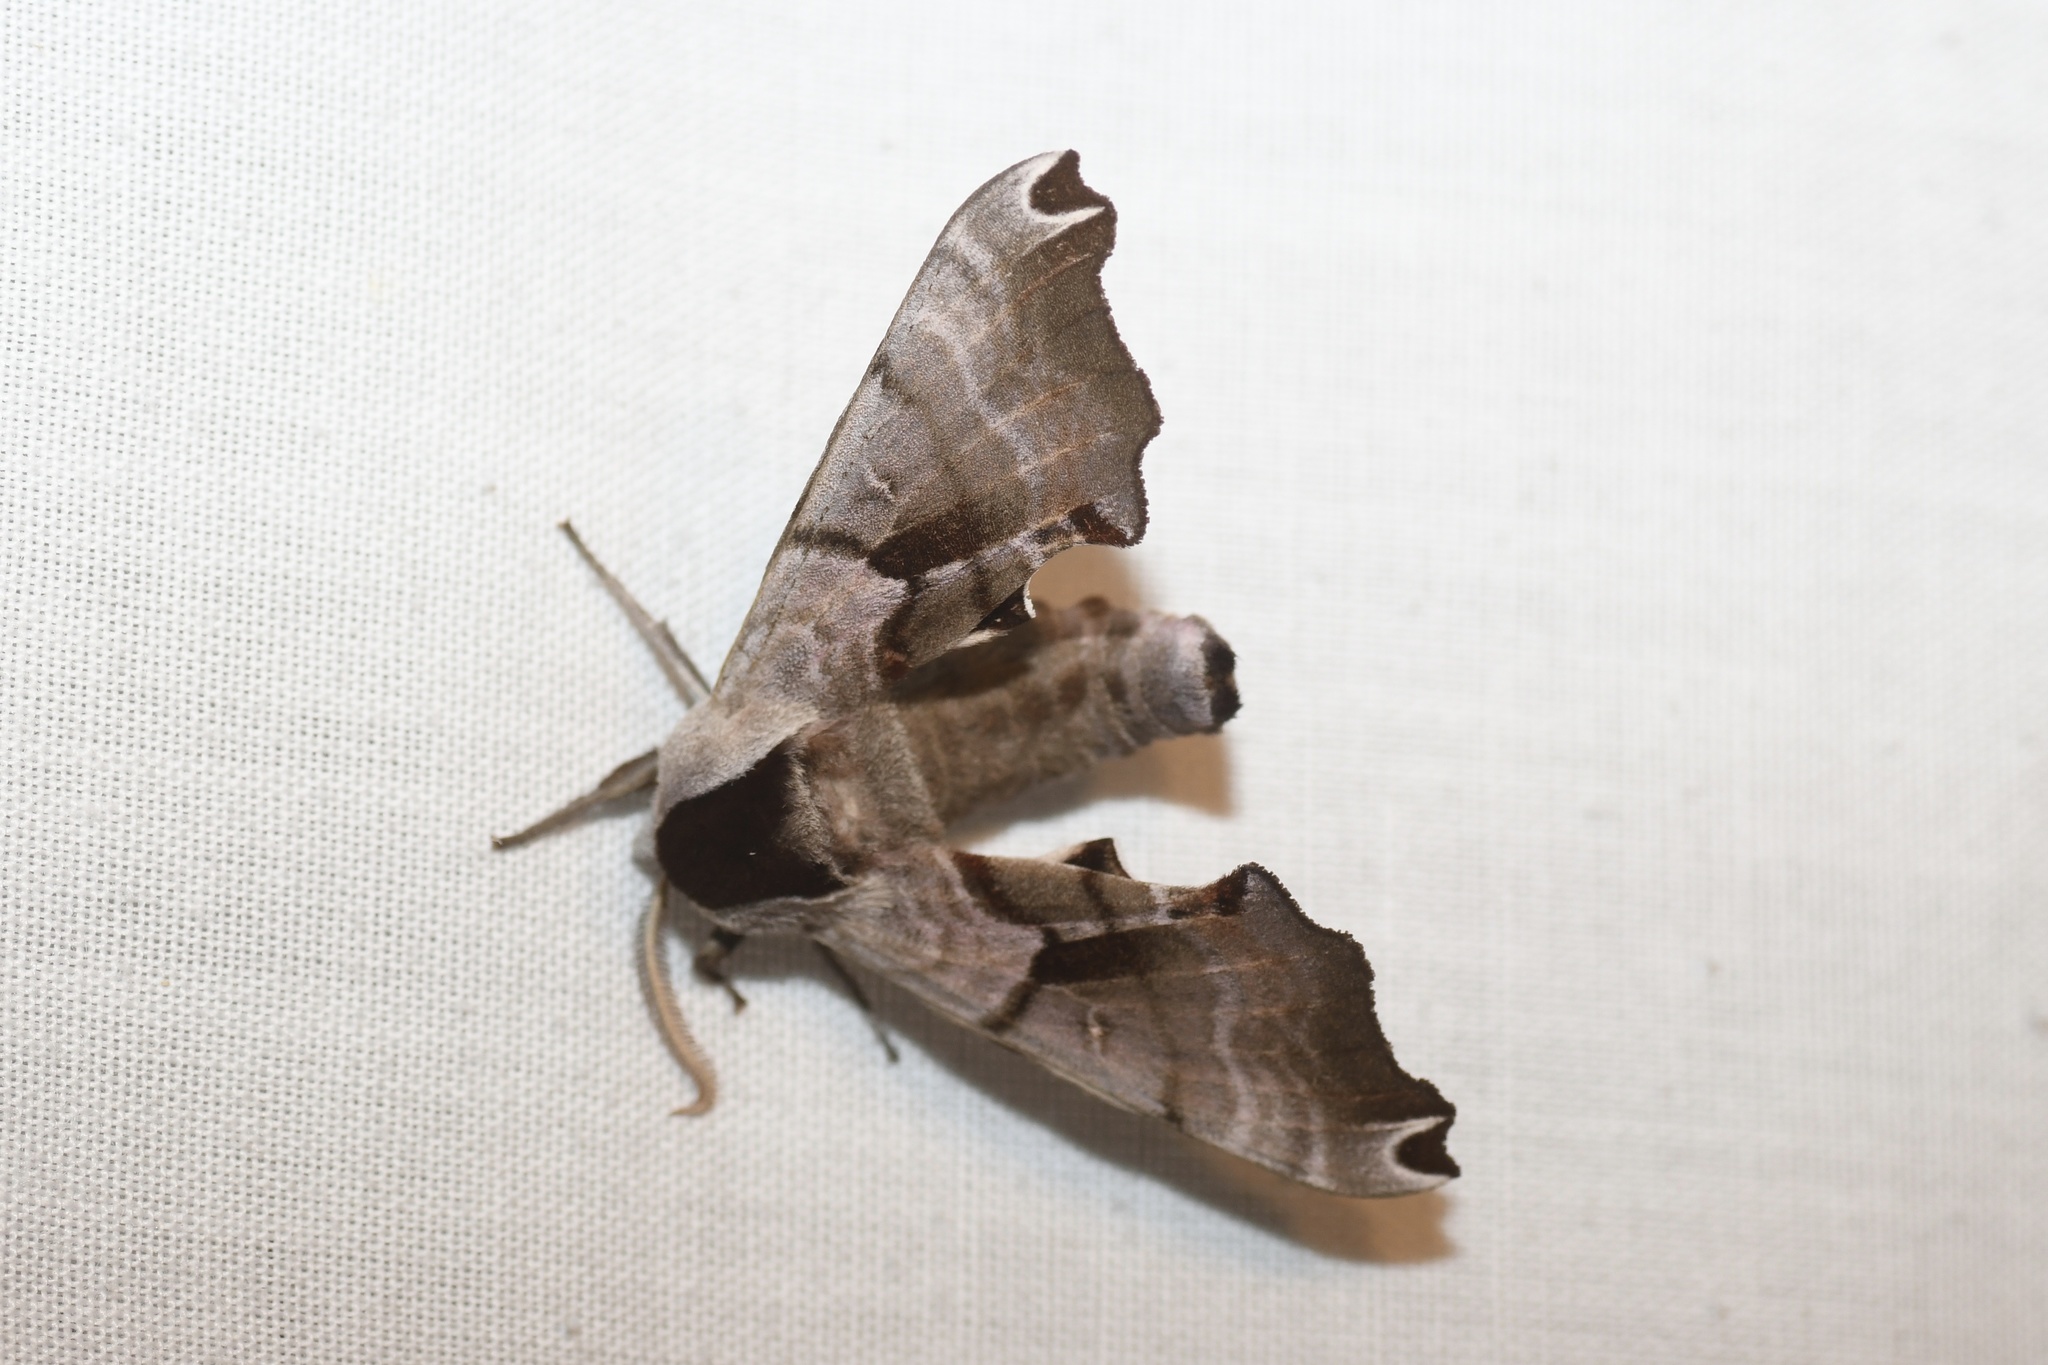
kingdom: Animalia
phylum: Arthropoda
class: Insecta
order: Lepidoptera
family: Sphingidae
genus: Smerinthus
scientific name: Smerinthus jamaicensis
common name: Twin spotted sphinx
